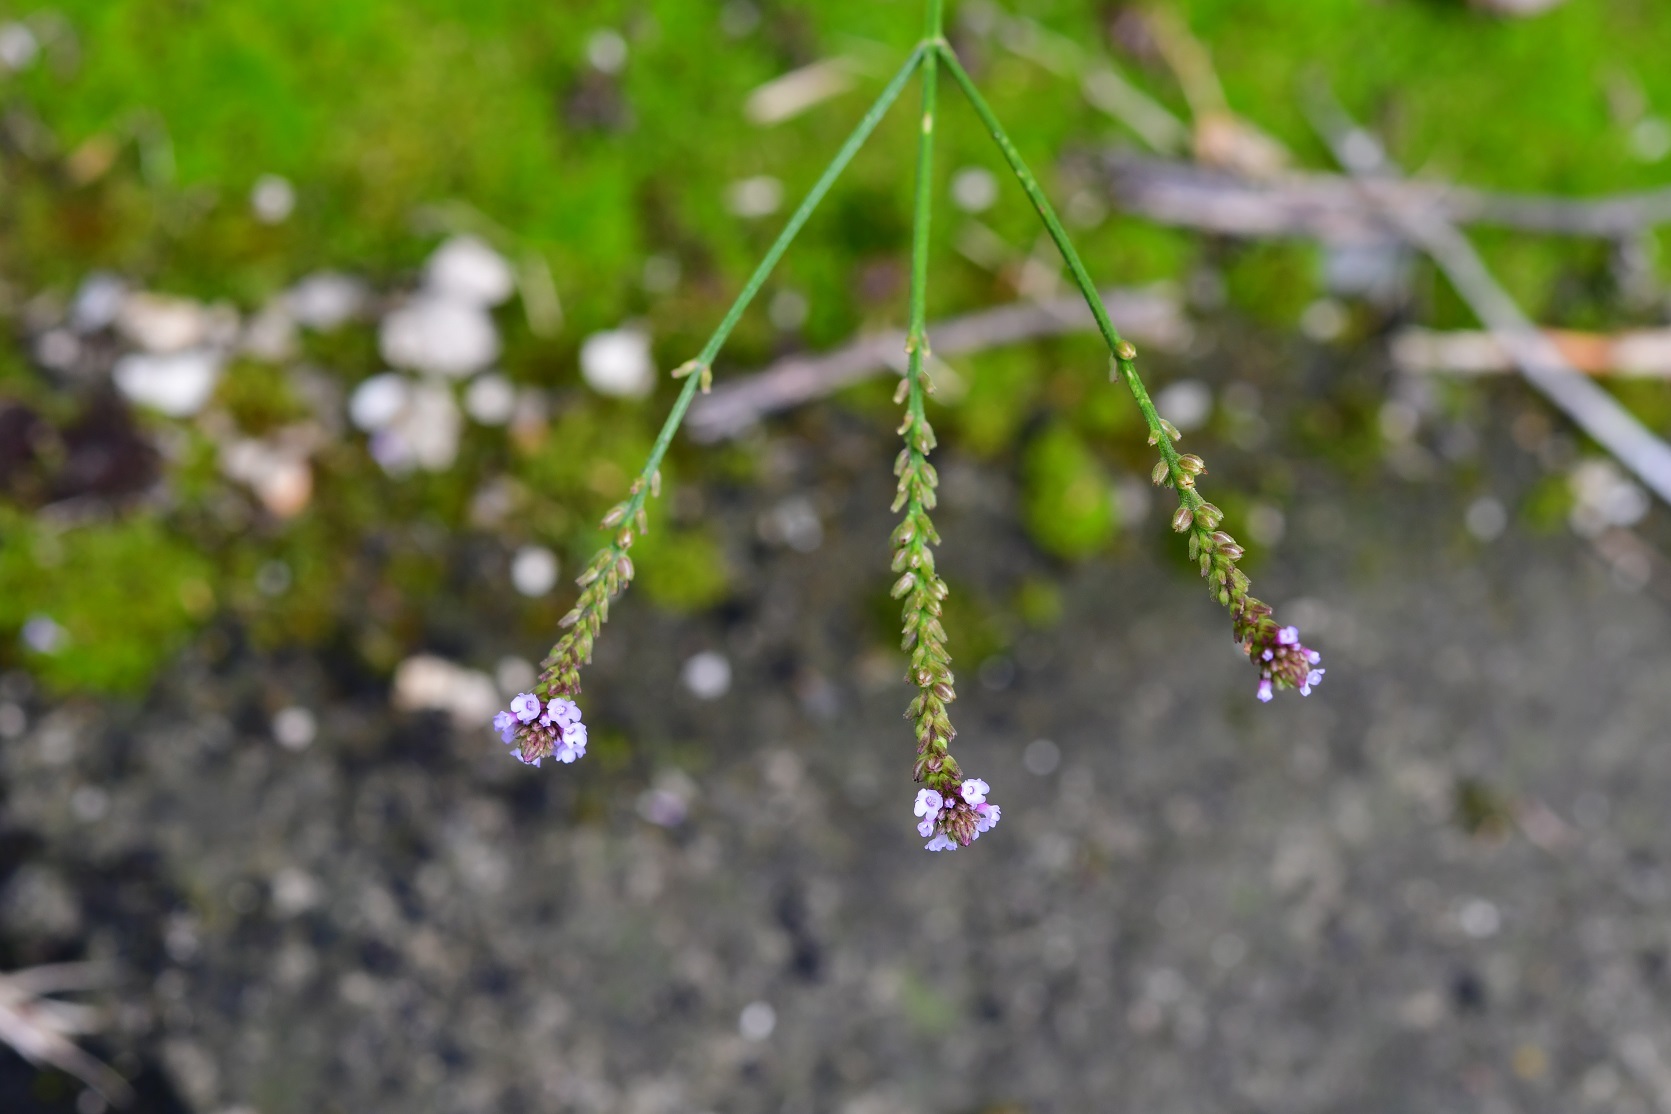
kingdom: Plantae
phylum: Tracheophyta
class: Magnoliopsida
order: Lamiales
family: Verbenaceae
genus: Verbena
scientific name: Verbena carolina
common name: Carolina vervain
